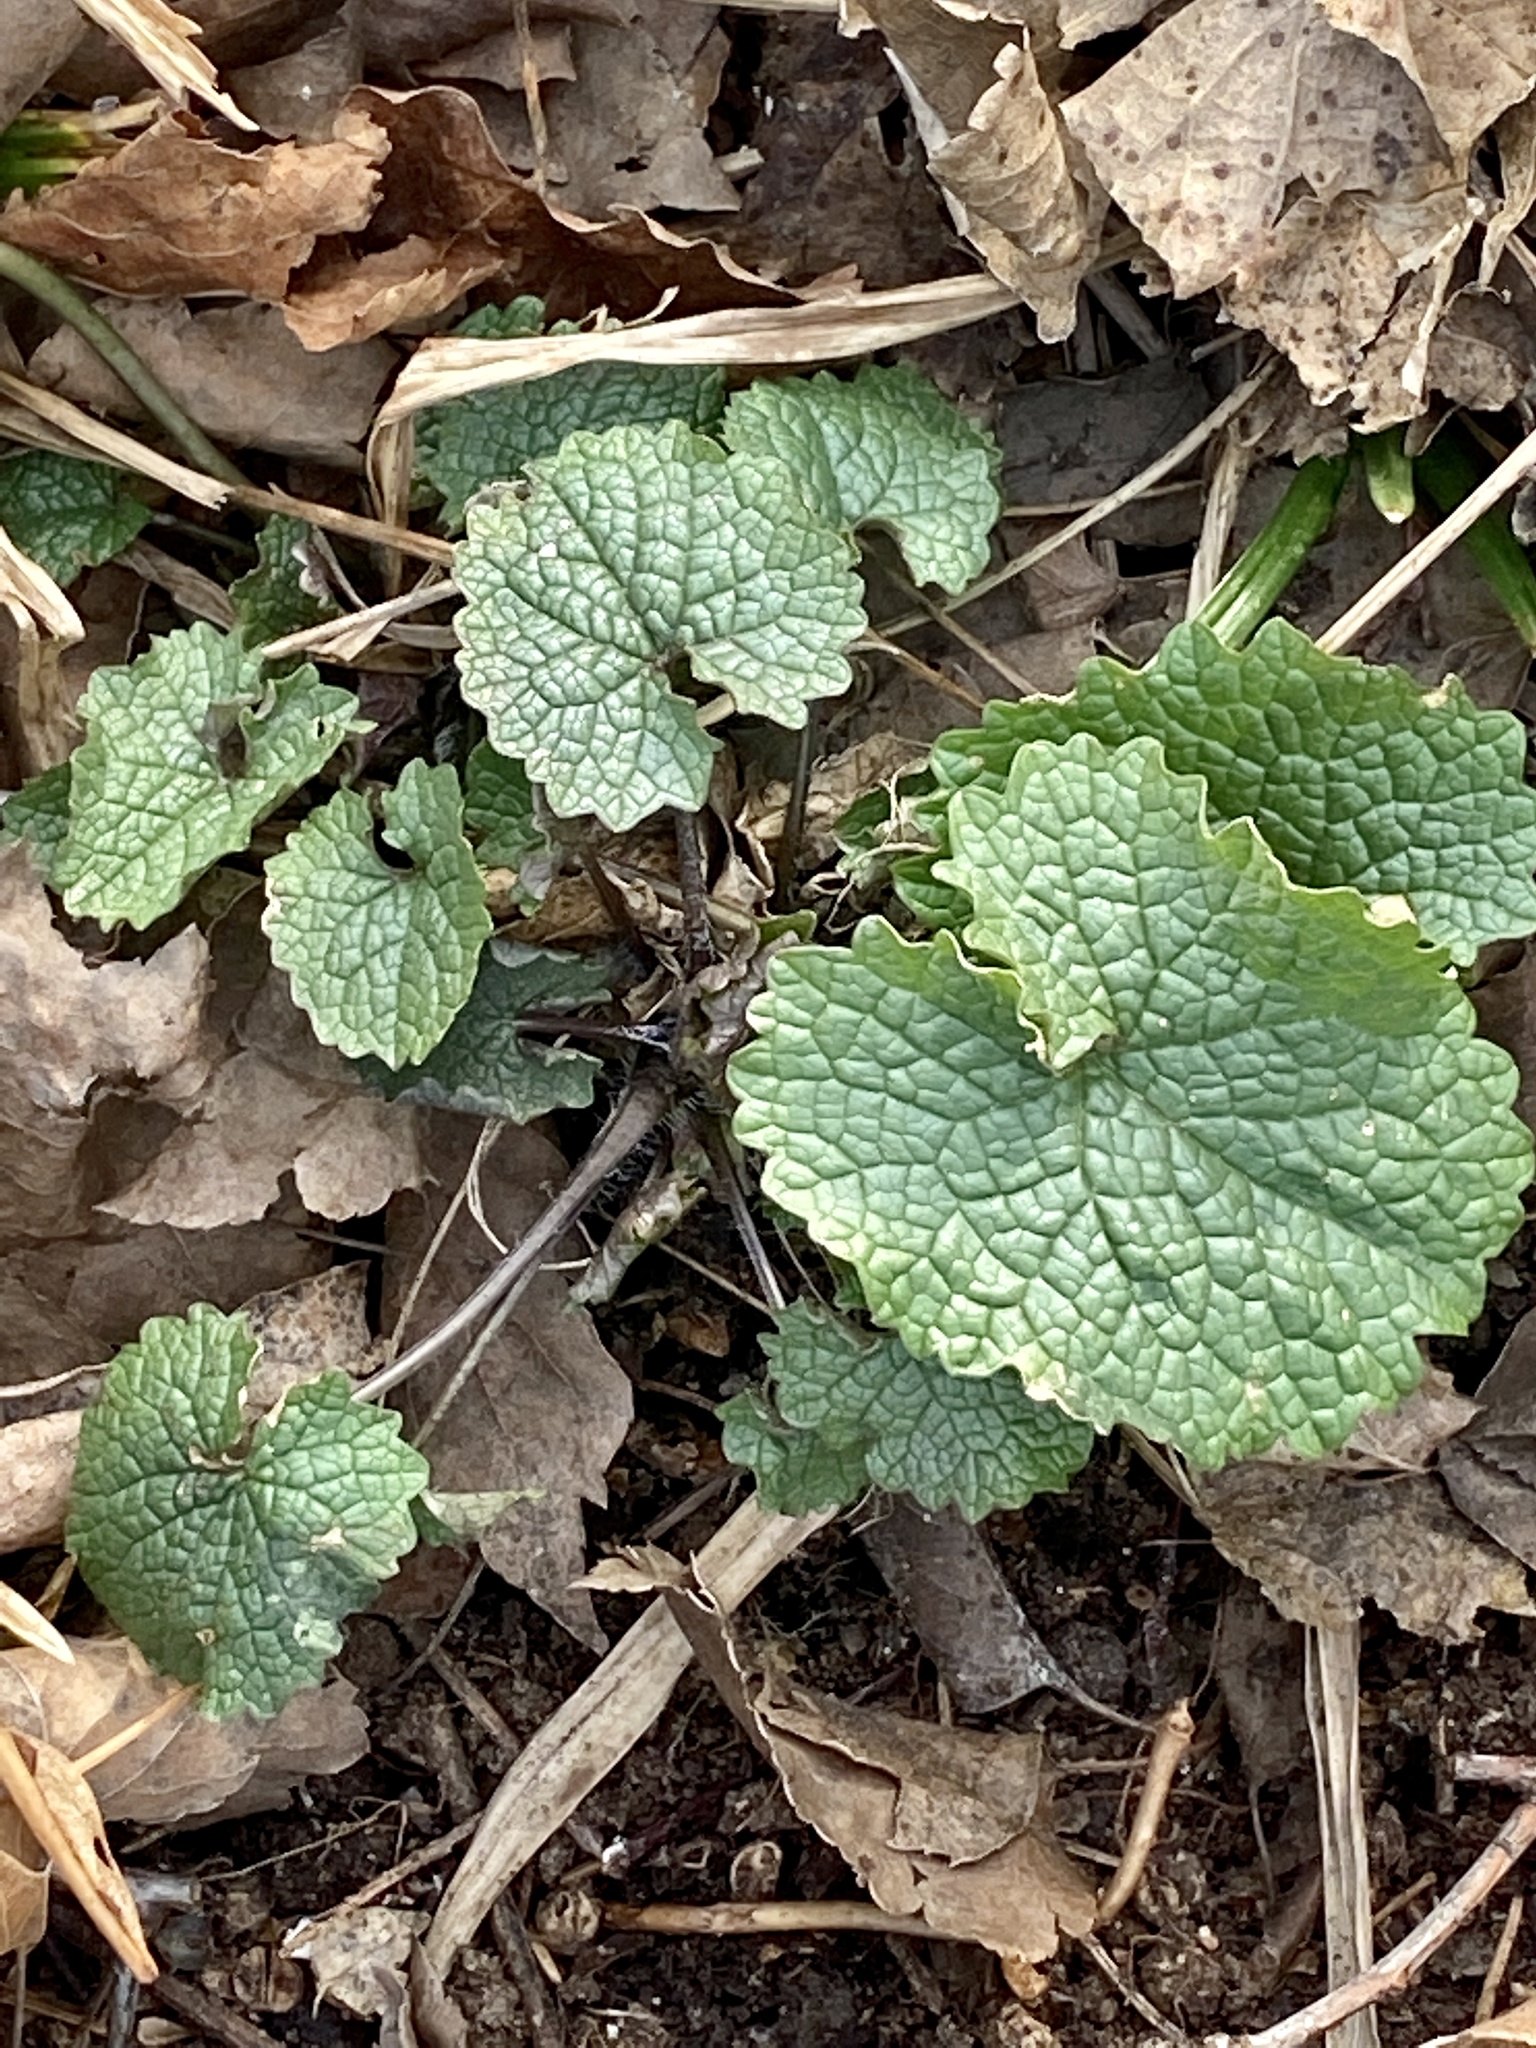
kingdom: Plantae
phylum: Tracheophyta
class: Magnoliopsida
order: Brassicales
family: Brassicaceae
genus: Alliaria
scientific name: Alliaria petiolata
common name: Garlic mustard
